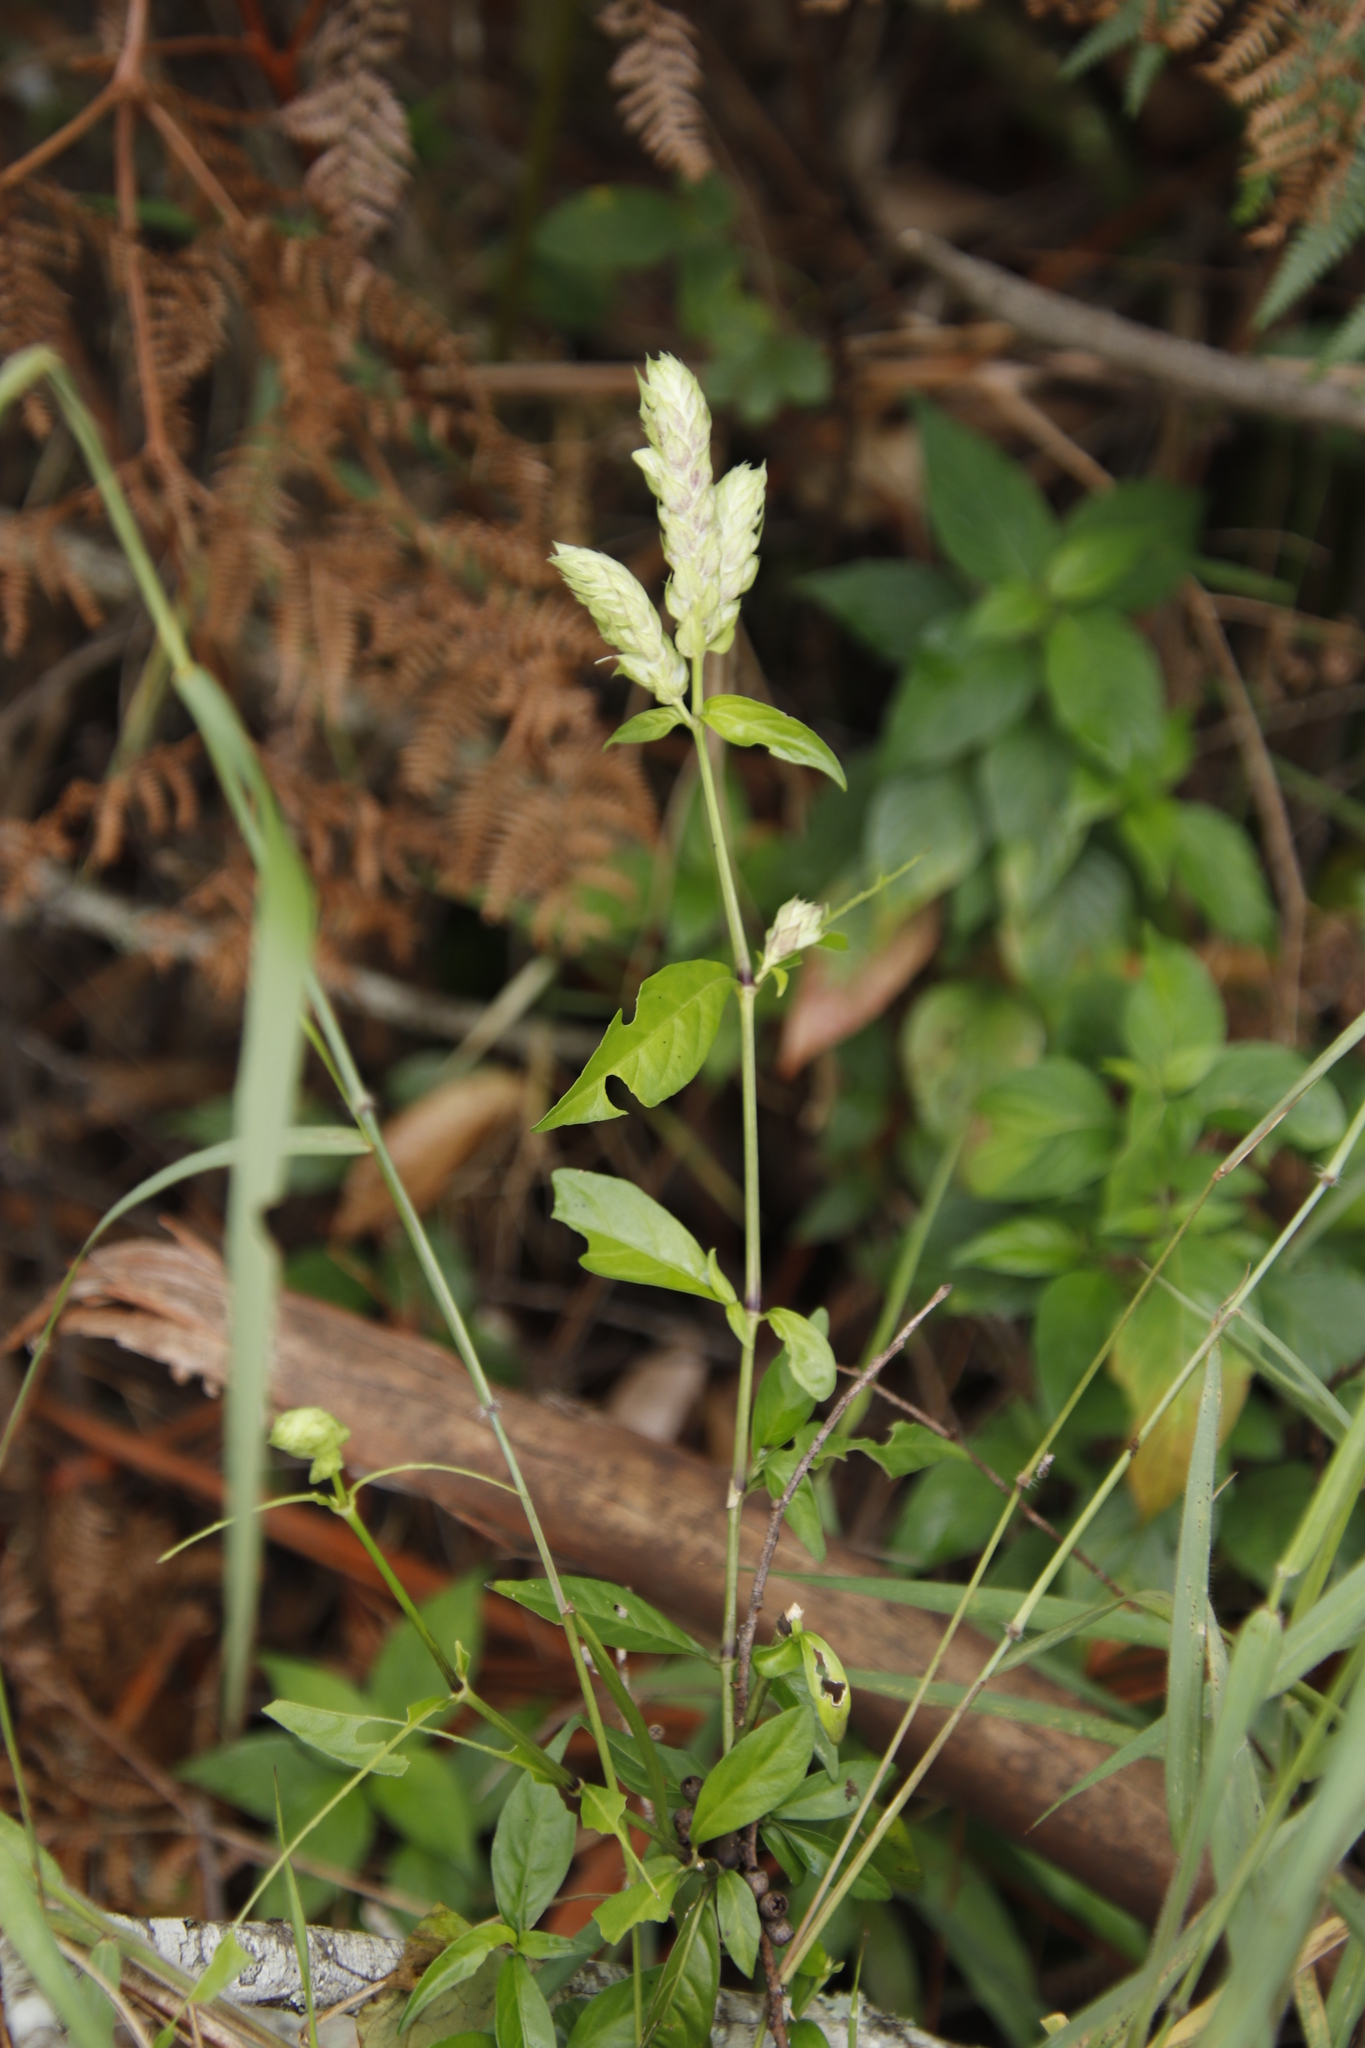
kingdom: Plantae
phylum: Tracheophyta
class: Magnoliopsida
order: Lamiales
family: Acanthaceae
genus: Justicia
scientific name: Justicia betonica
